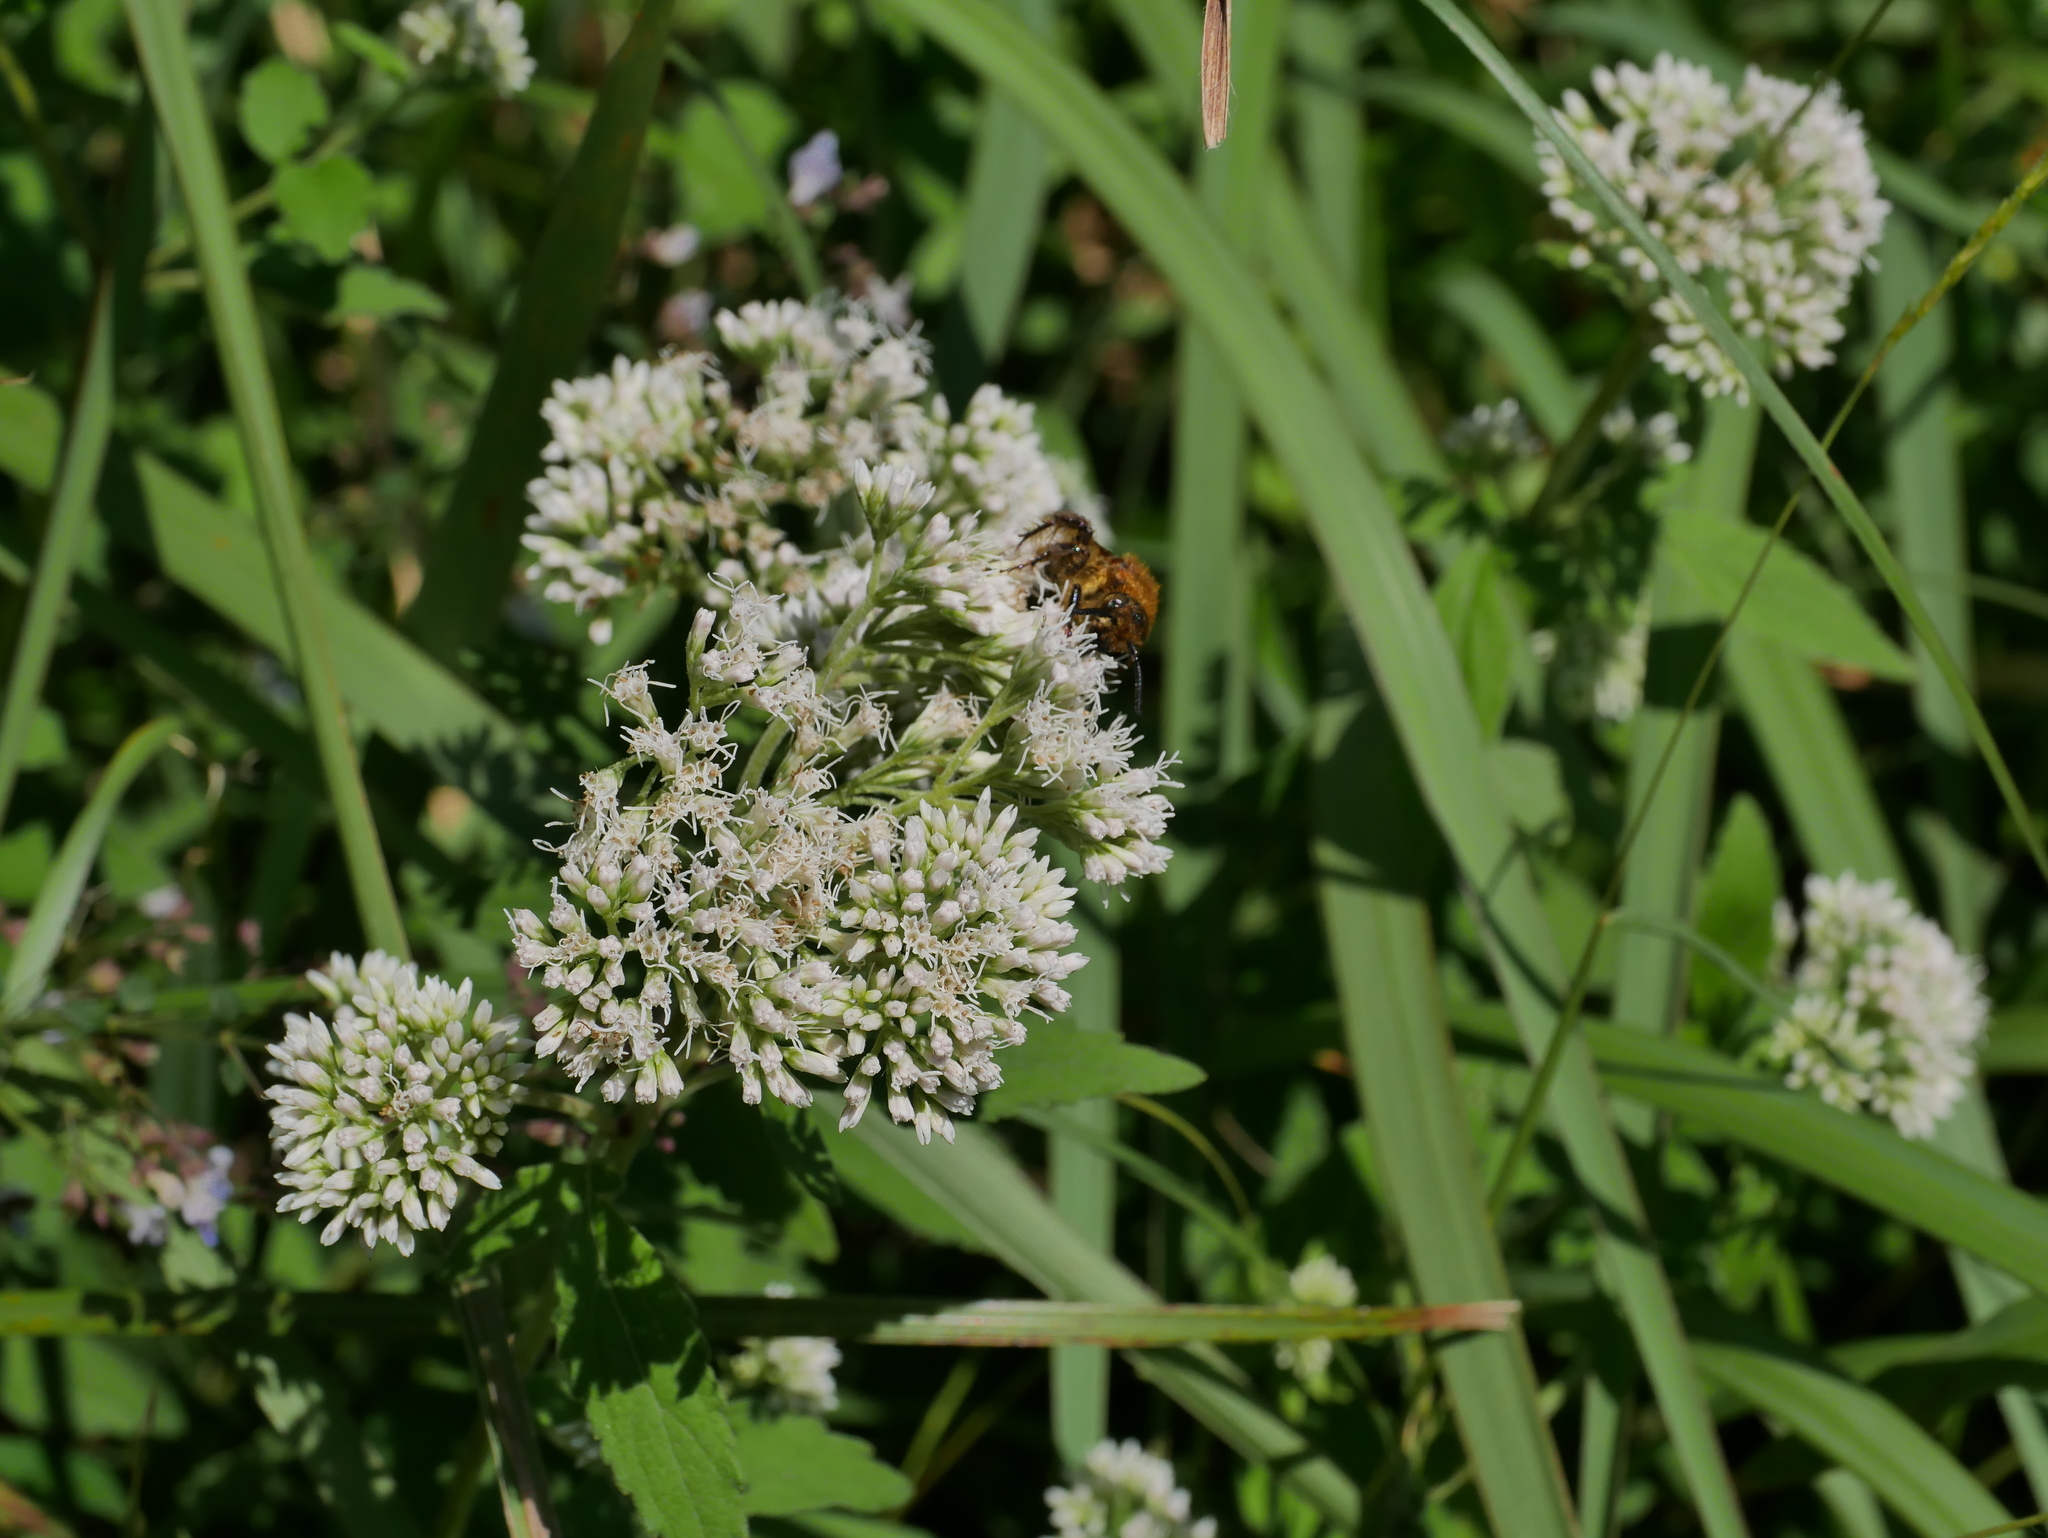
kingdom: Plantae
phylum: Tracheophyta
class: Magnoliopsida
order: Asterales
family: Asteraceae
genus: Eupatorium
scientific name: Eupatorium formosanum
